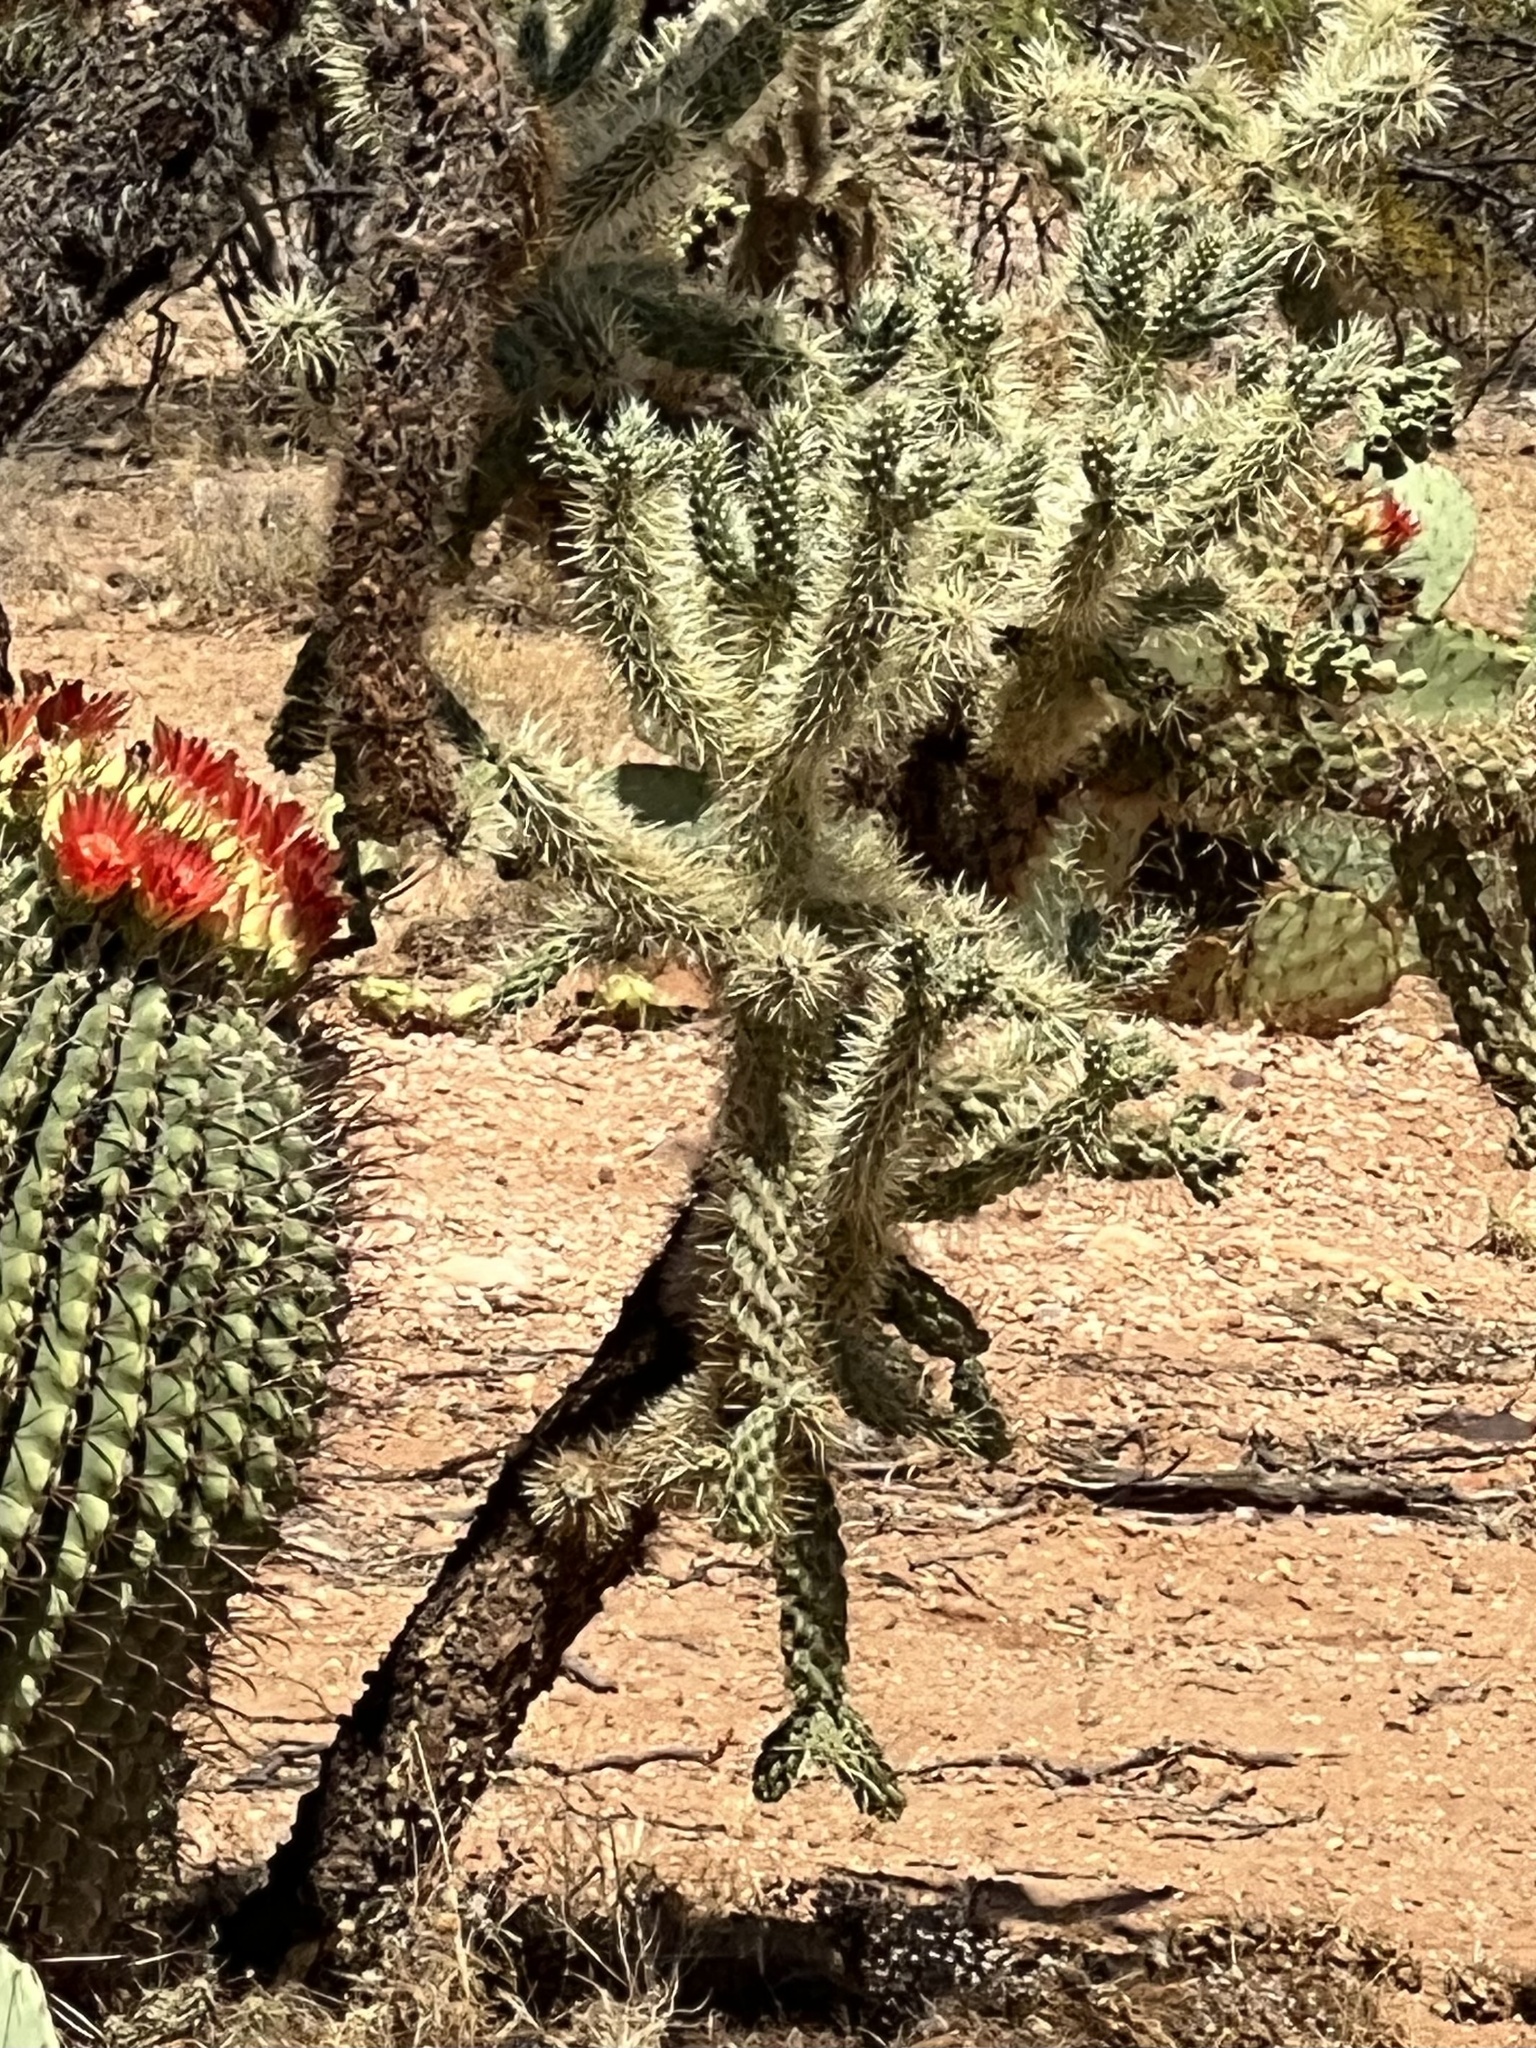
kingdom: Plantae
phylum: Tracheophyta
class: Magnoliopsida
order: Caryophyllales
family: Cactaceae
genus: Cylindropuntia
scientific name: Cylindropuntia fulgida
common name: Jumping cholla
